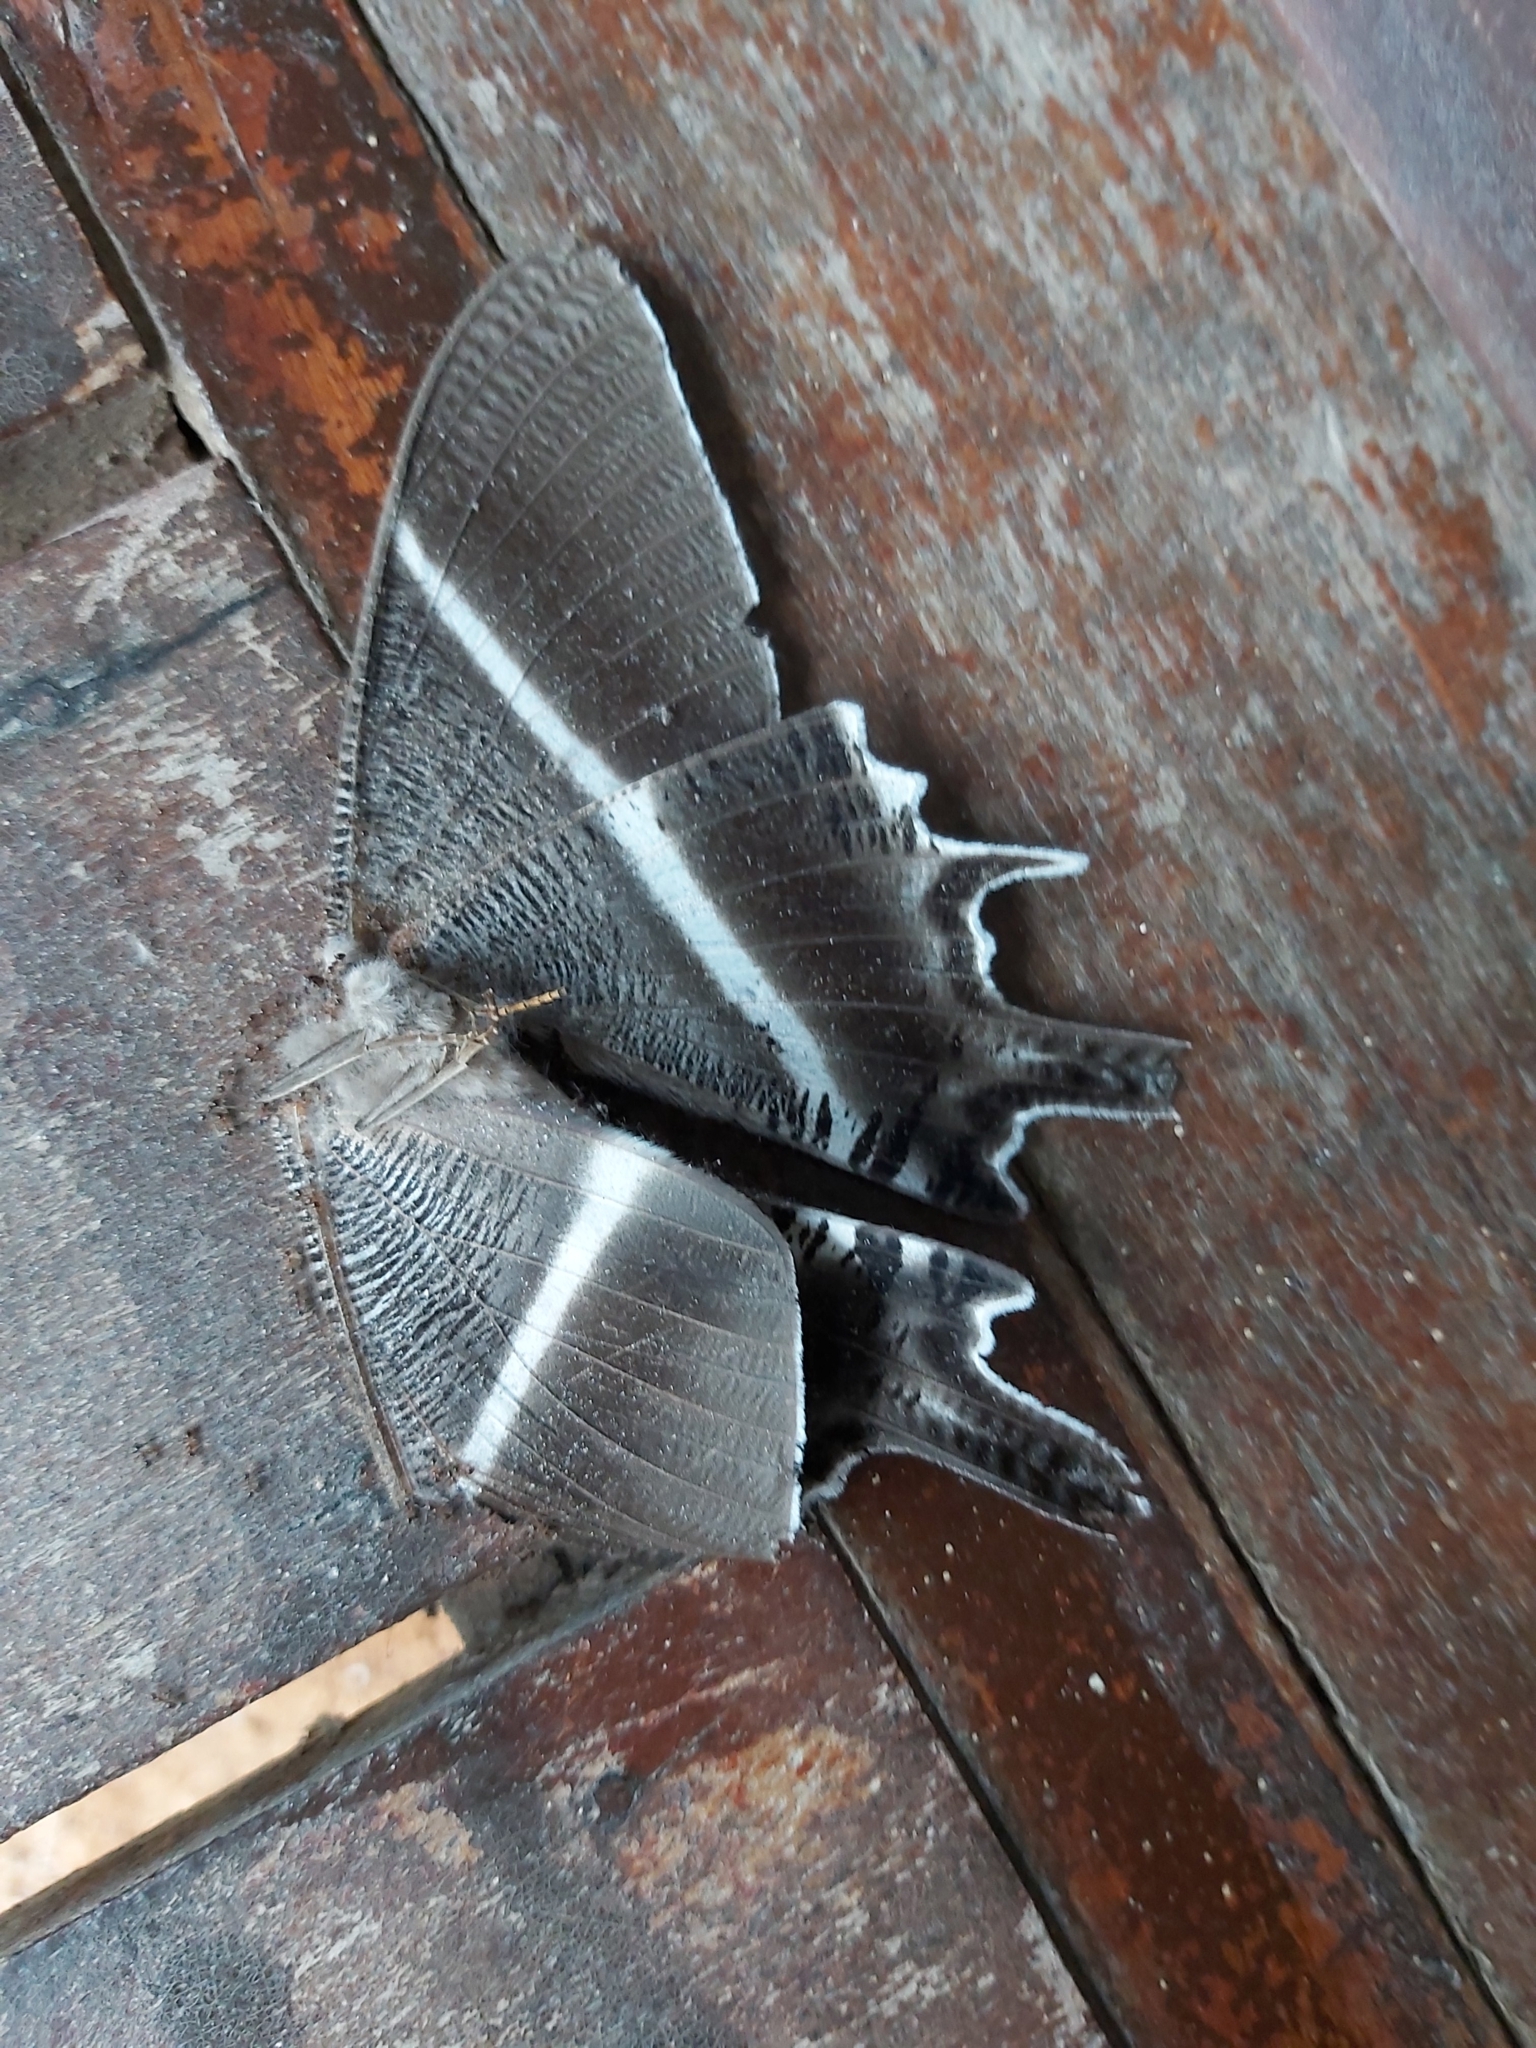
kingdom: Animalia
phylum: Arthropoda
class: Insecta
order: Lepidoptera
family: Uraniidae
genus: Lyssa
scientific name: Lyssa menoetius
